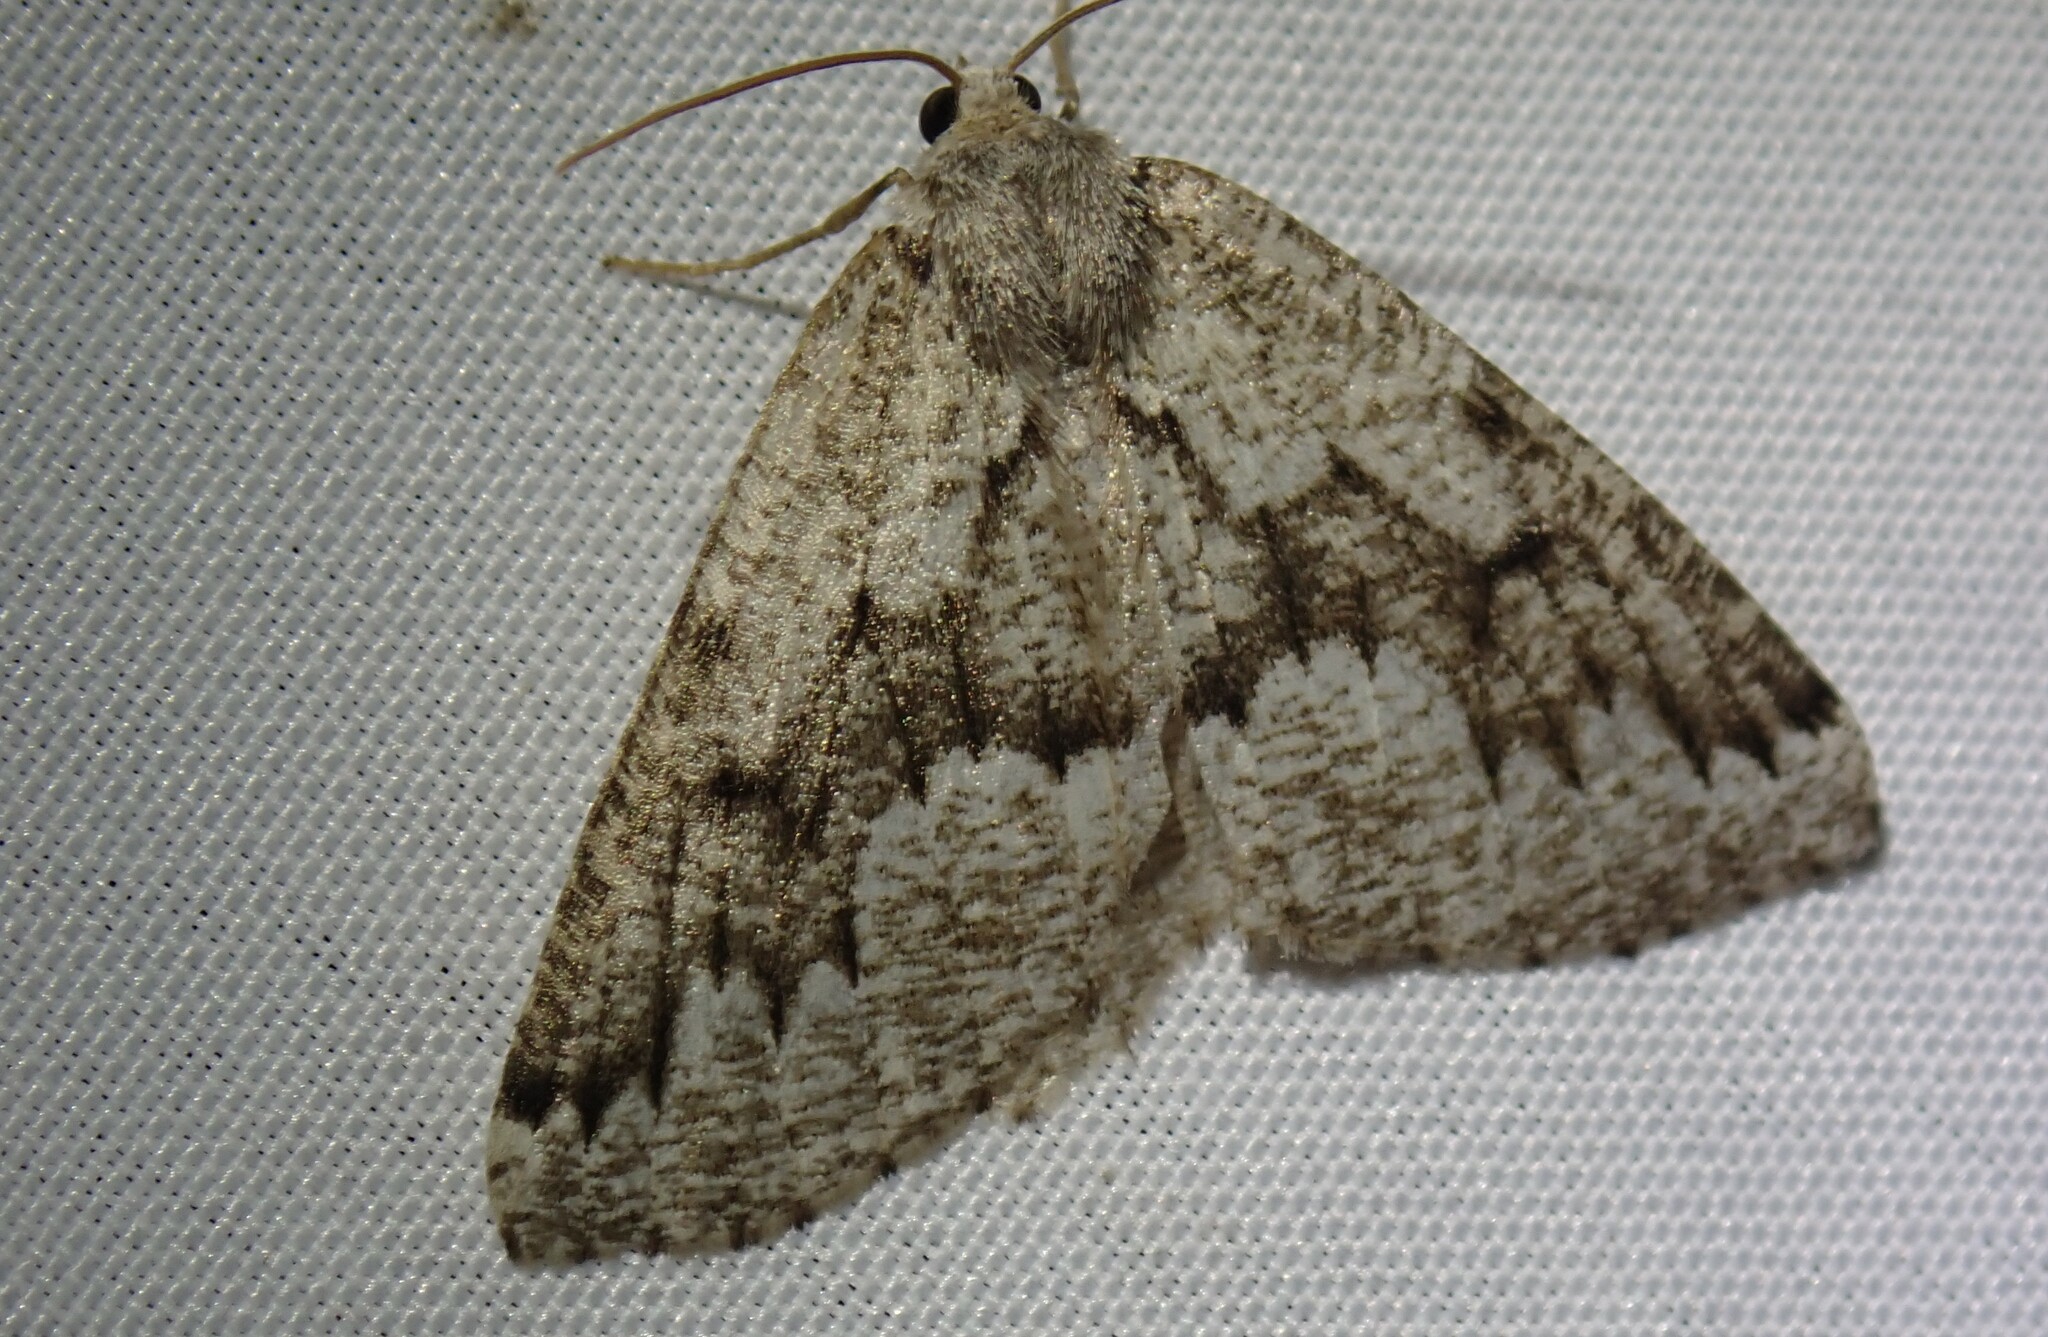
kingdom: Animalia
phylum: Arthropoda
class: Insecta
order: Lepidoptera
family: Geometridae
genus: Sabulodes
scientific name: Sabulodes
